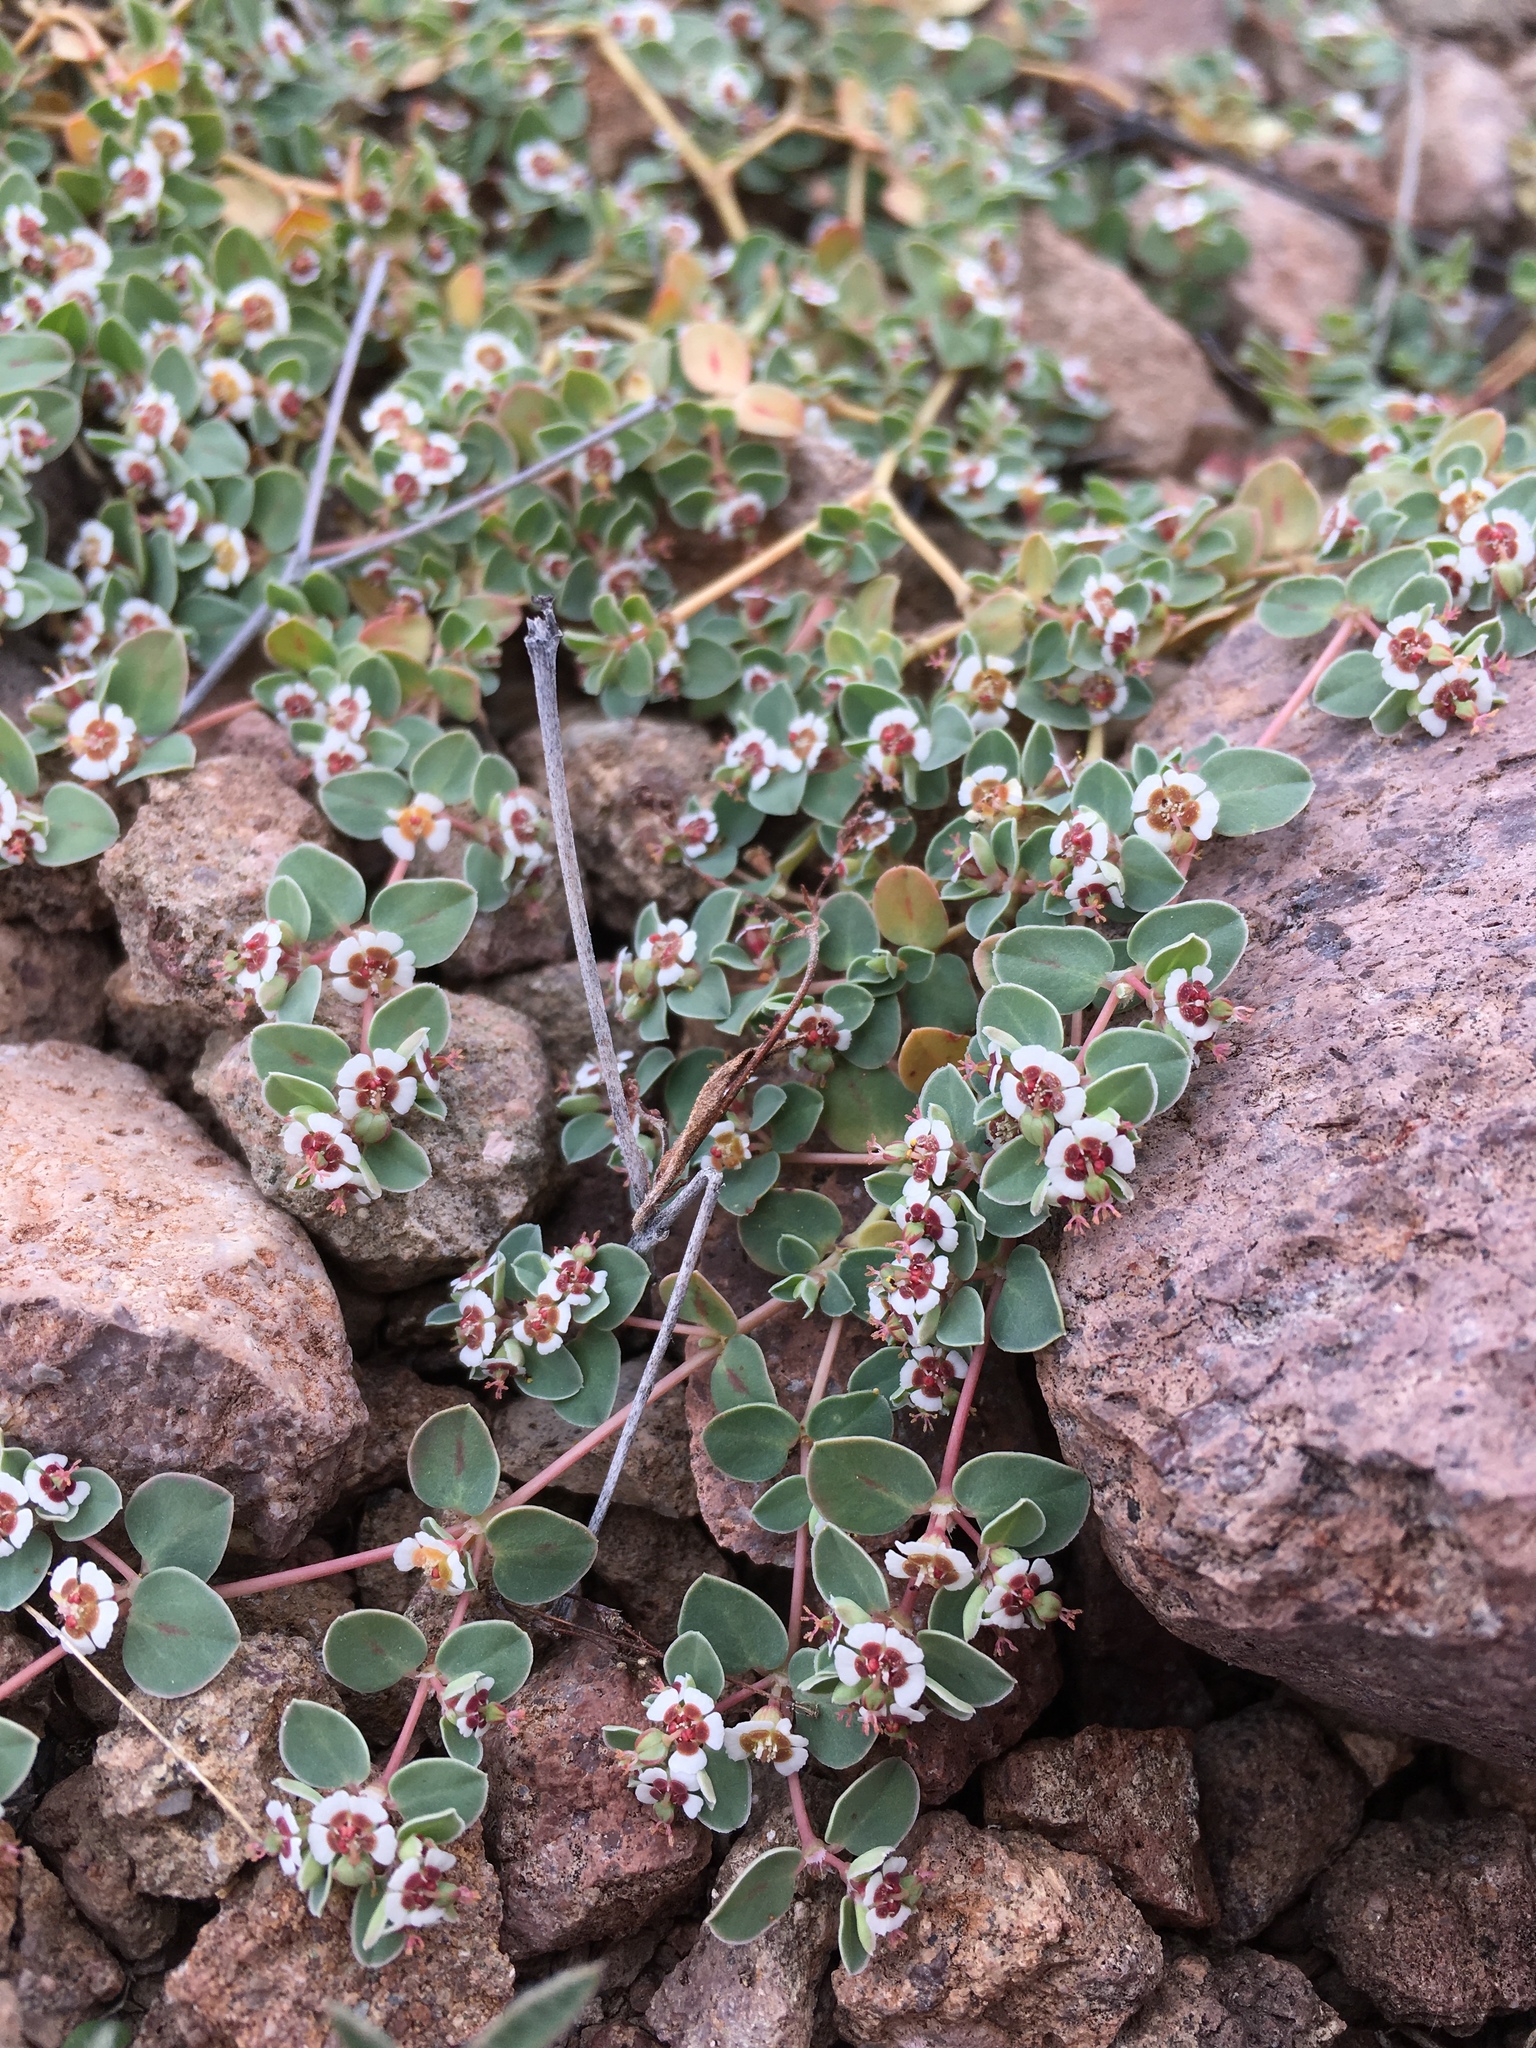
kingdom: Plantae
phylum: Tracheophyta
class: Magnoliopsida
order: Malpighiales
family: Euphorbiaceae
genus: Euphorbia
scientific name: Euphorbia albomarginata
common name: Whitemargin sandmat
